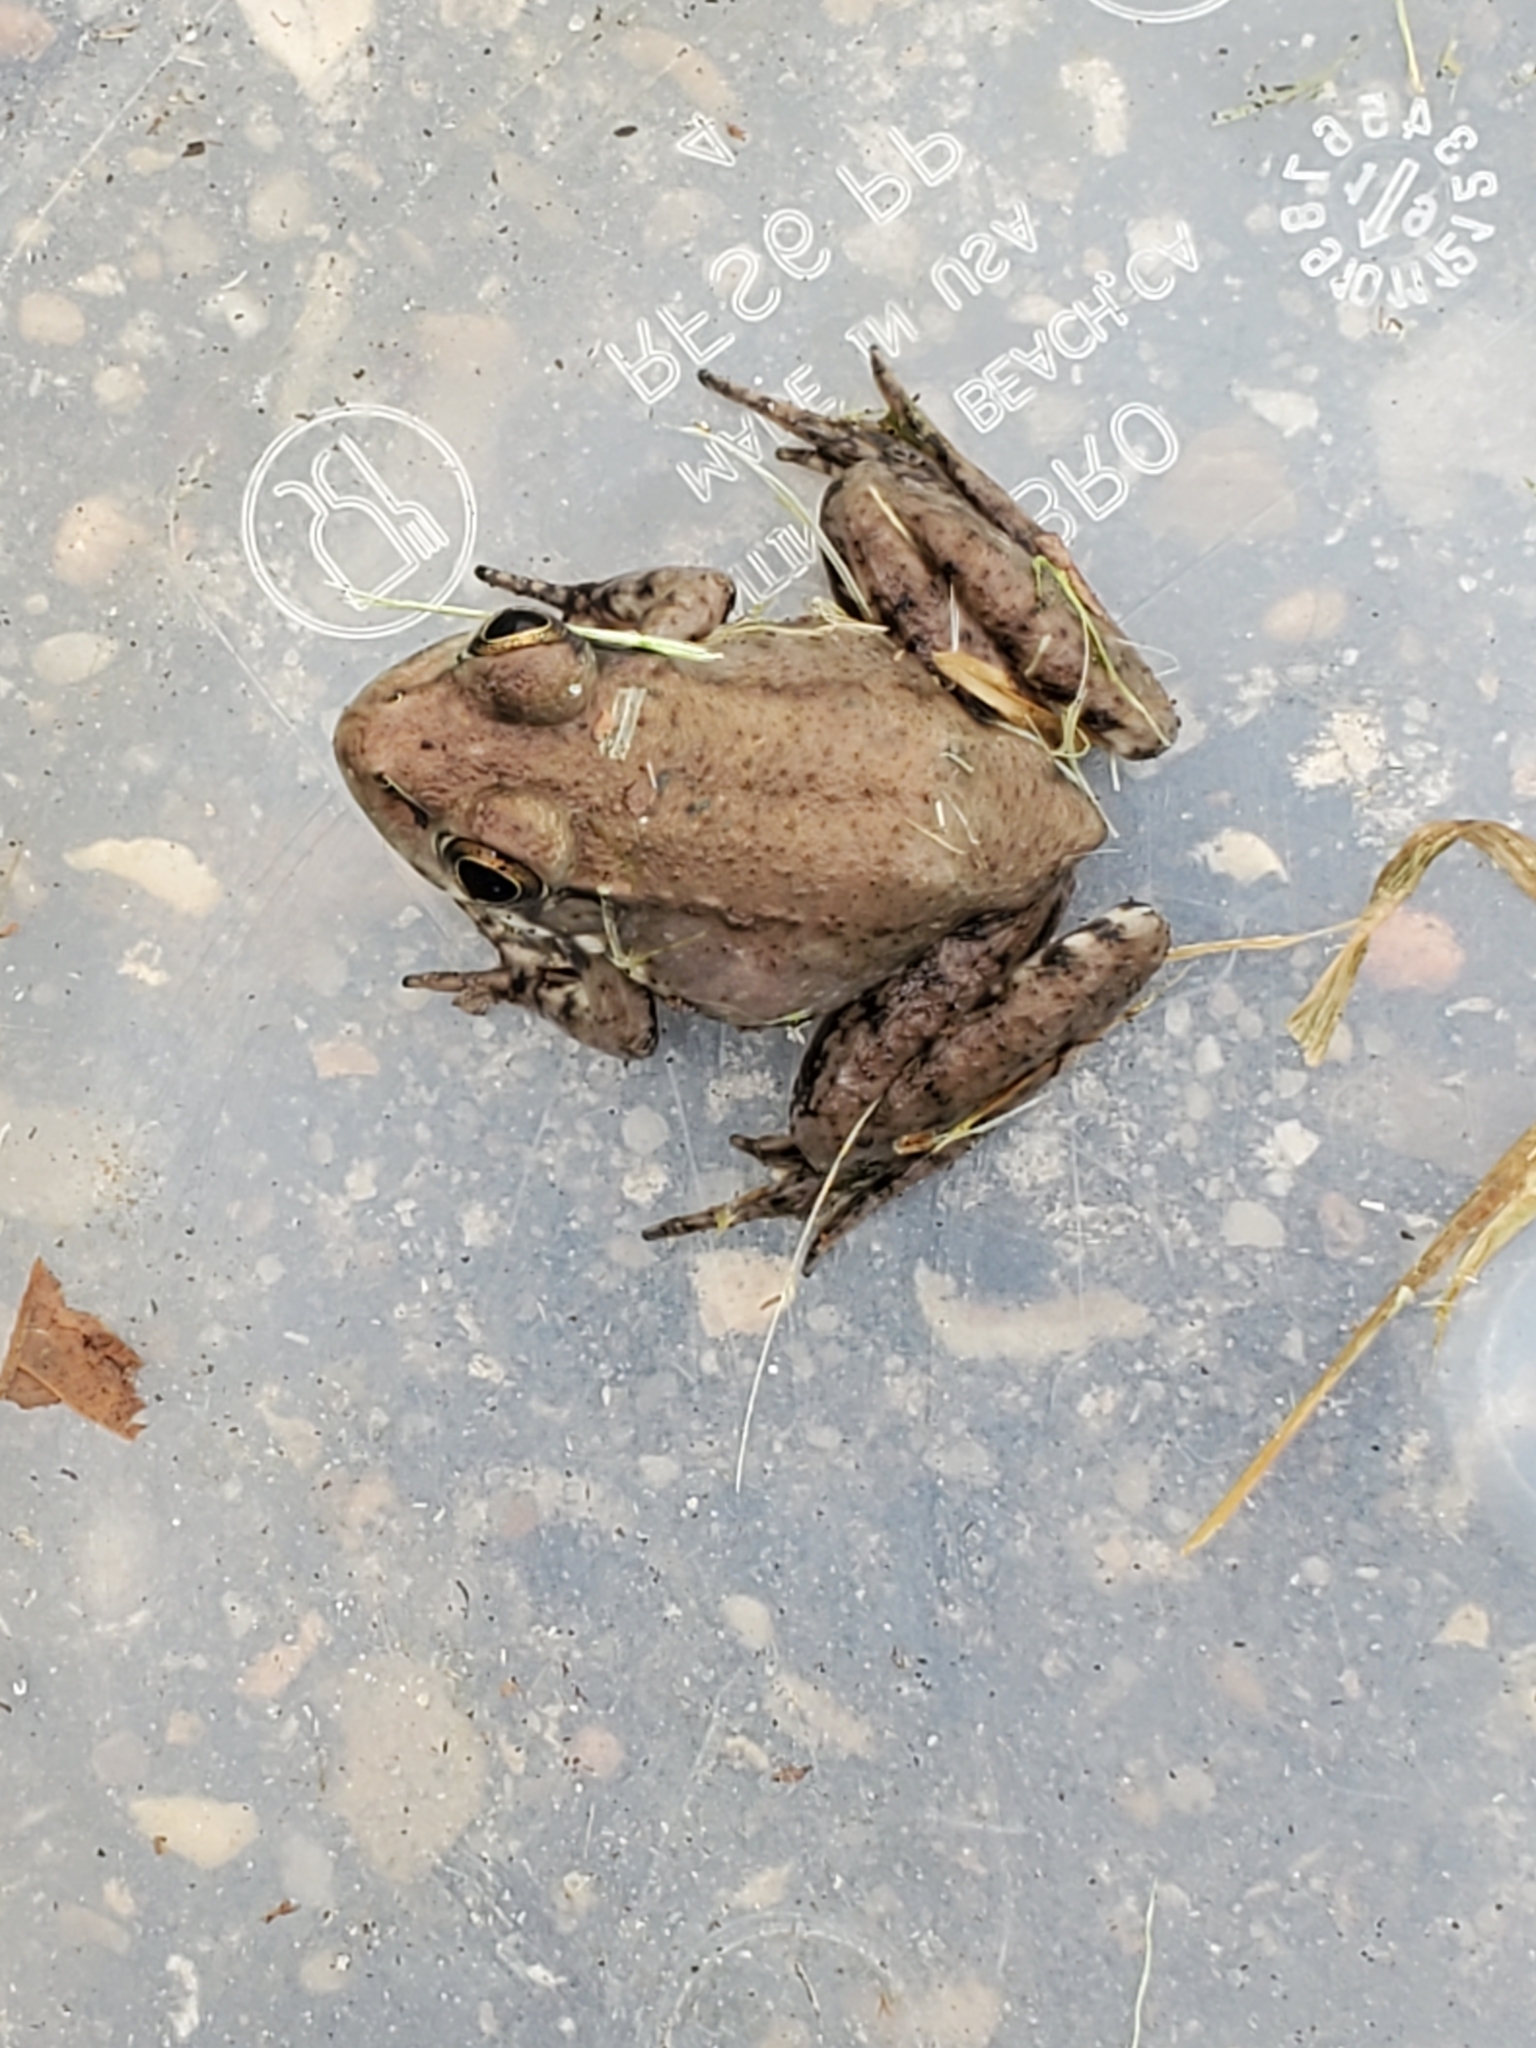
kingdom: Animalia
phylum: Chordata
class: Amphibia
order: Anura
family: Ranidae
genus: Lithobates
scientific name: Lithobates clamitans
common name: Green frog
